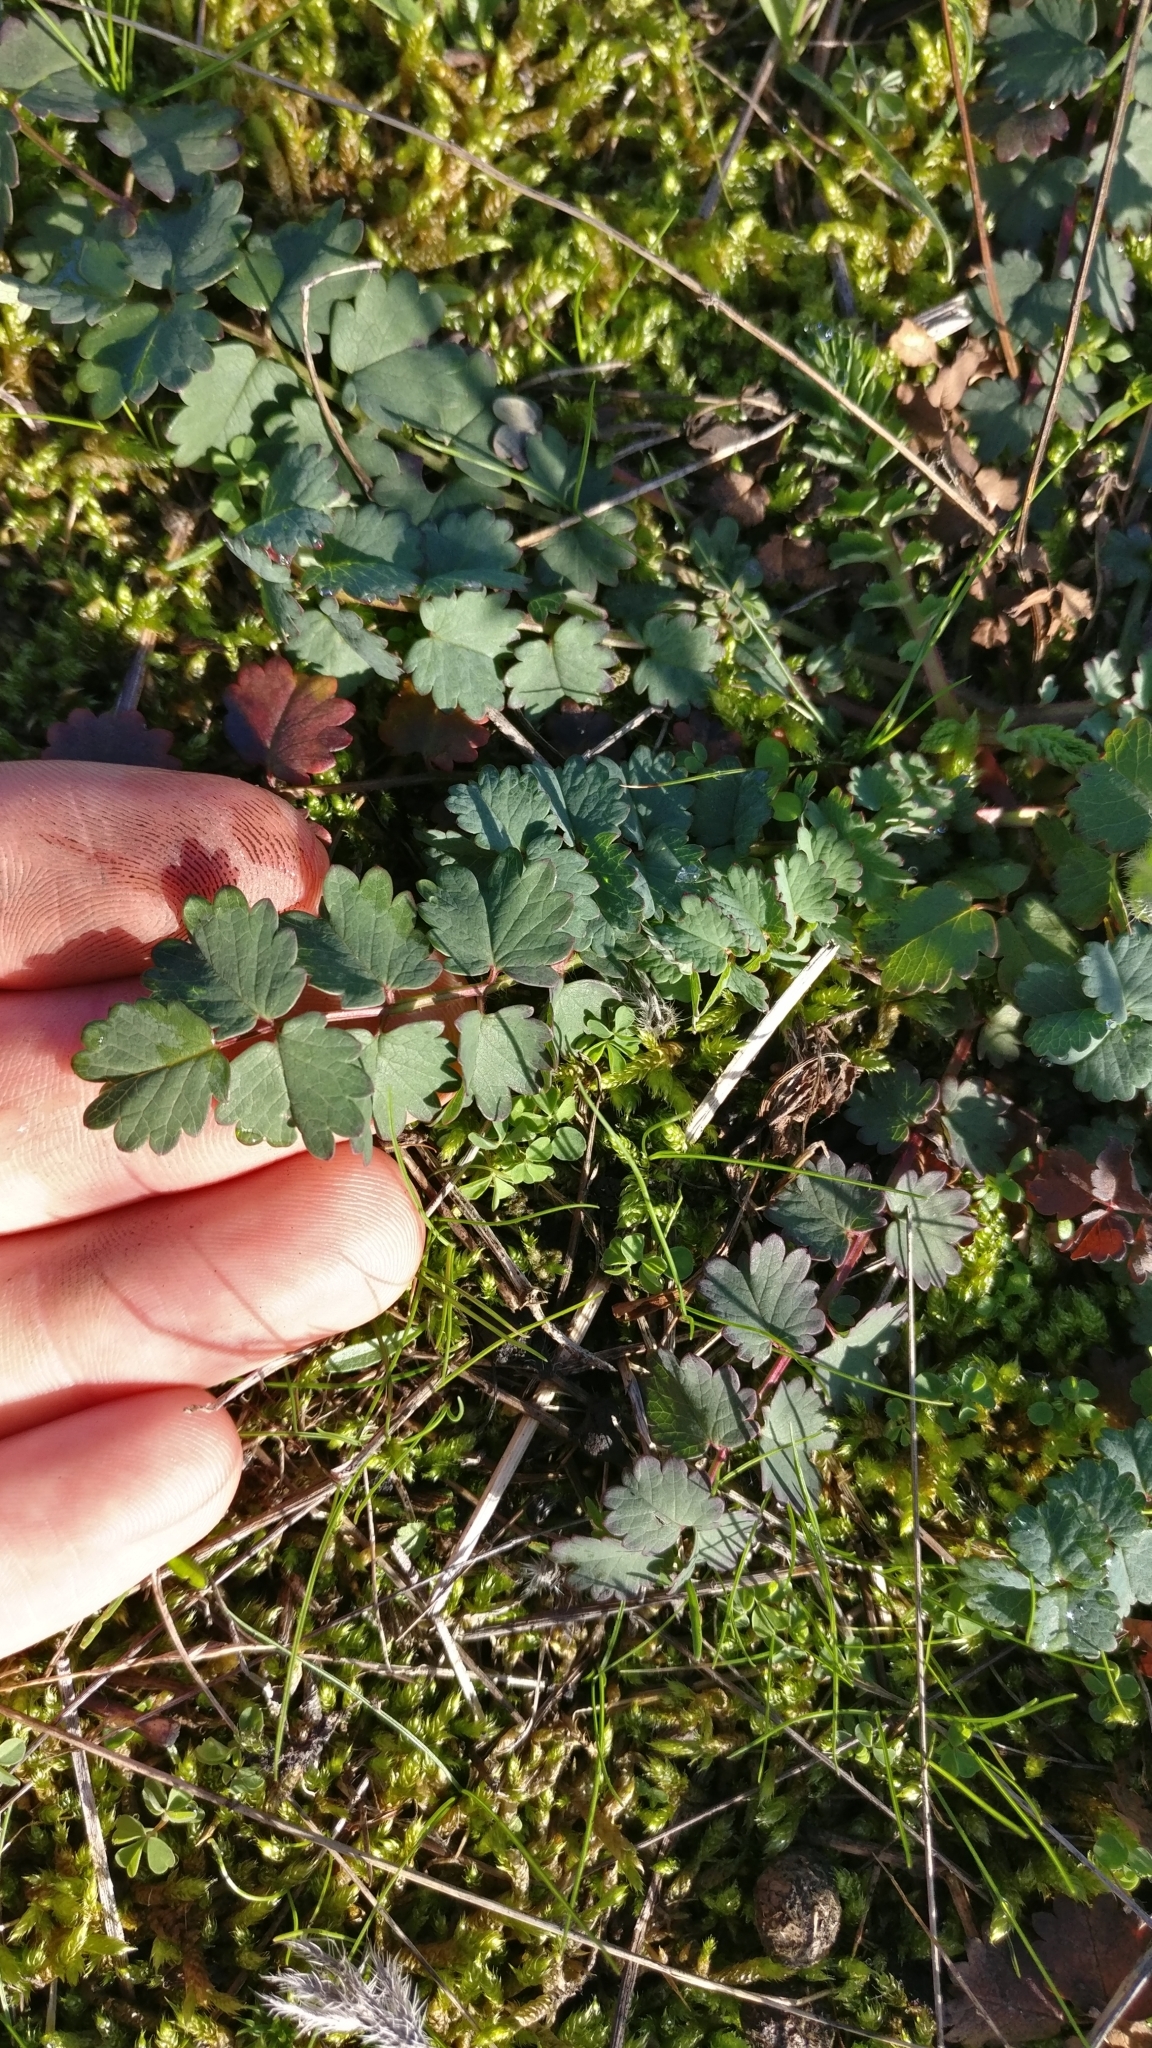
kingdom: Plantae
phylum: Tracheophyta
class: Magnoliopsida
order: Rosales
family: Rosaceae
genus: Poterium
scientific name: Poterium sanguisorba
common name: Salad burnet
